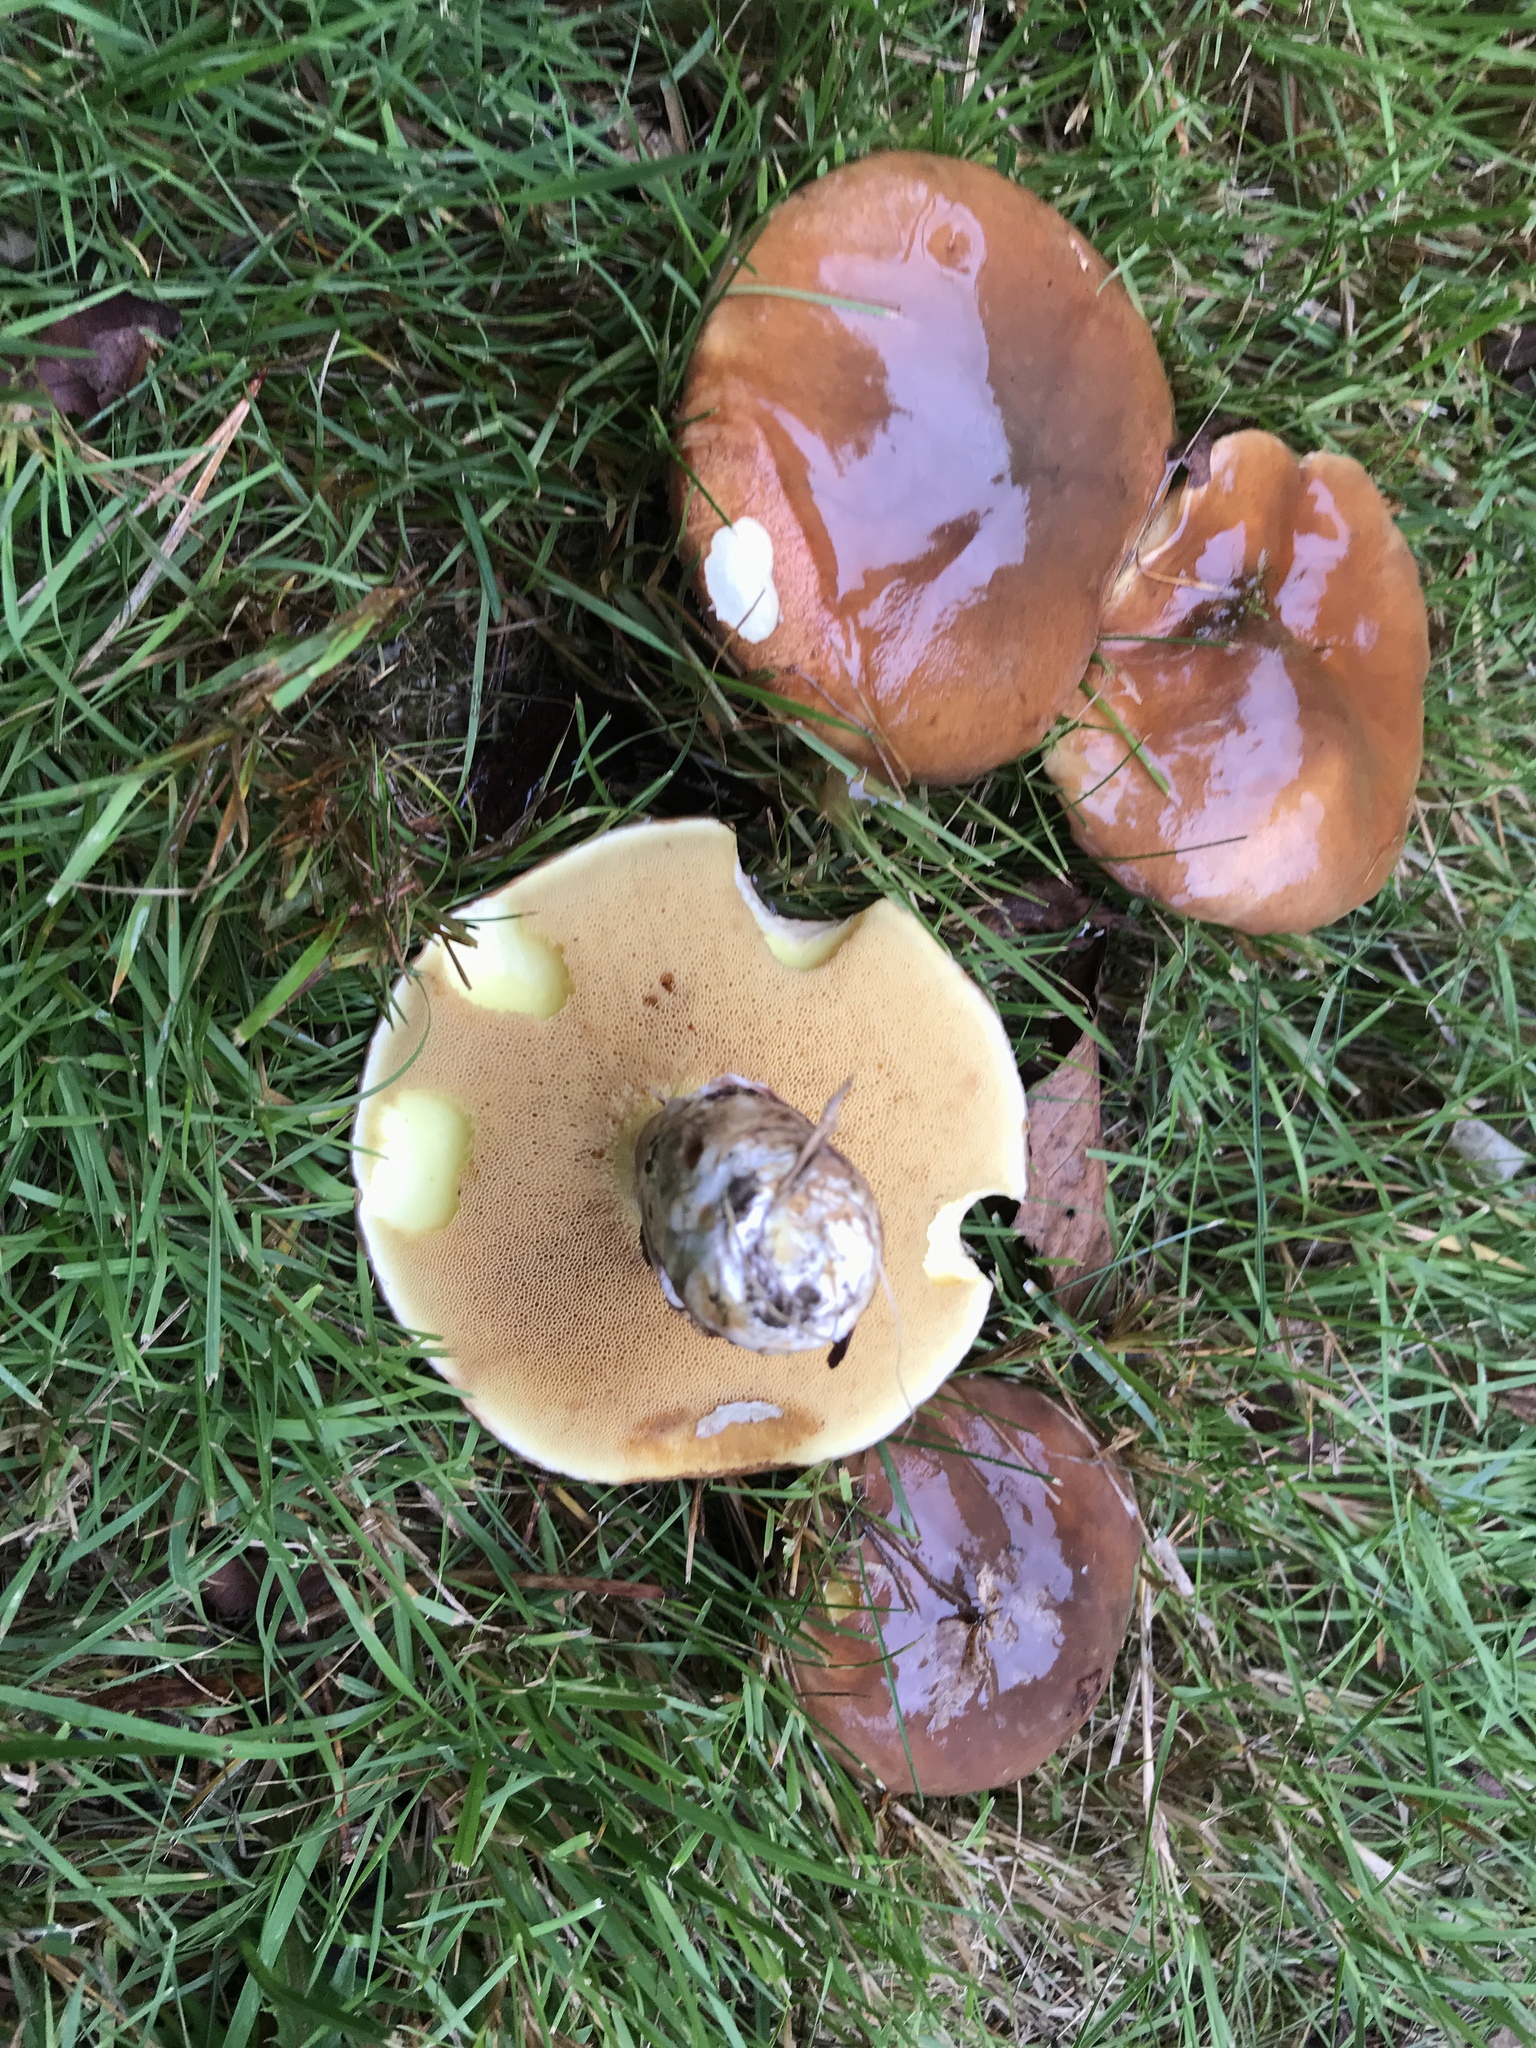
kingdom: Fungi
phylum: Basidiomycota
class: Agaricomycetes
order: Boletales
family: Suillaceae
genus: Suillus
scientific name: Suillus
